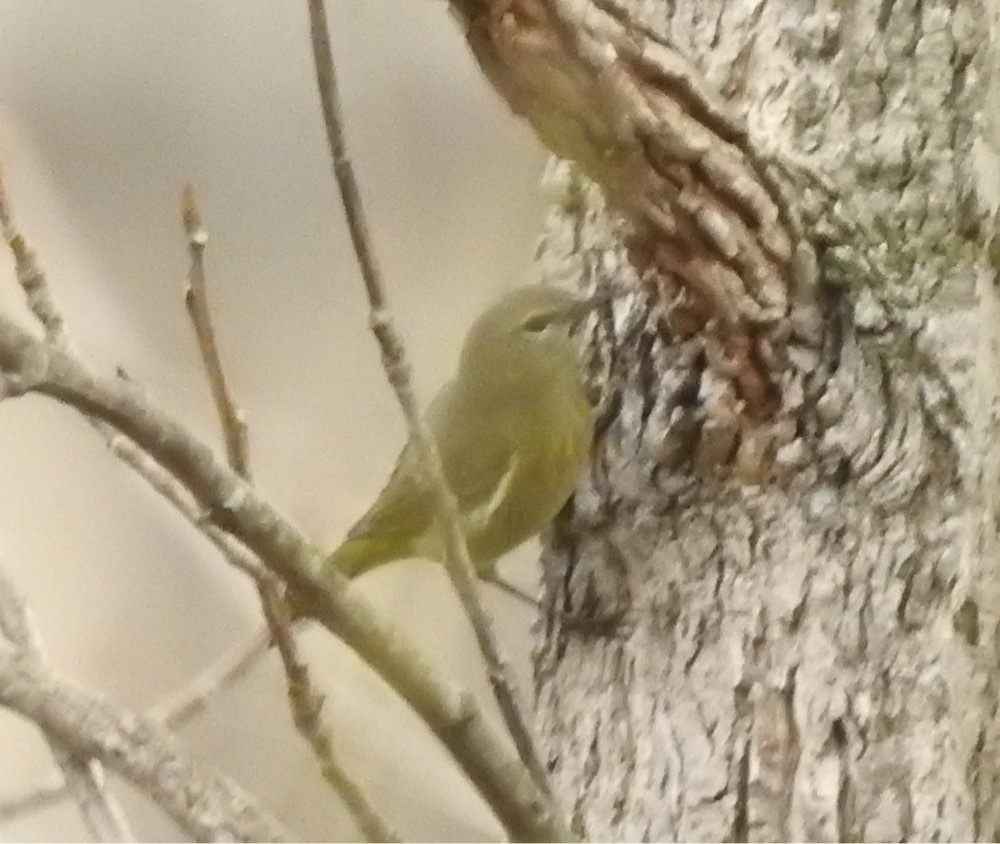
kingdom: Animalia
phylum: Chordata
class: Aves
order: Passeriformes
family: Parulidae
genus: Leiothlypis
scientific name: Leiothlypis celata
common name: Orange-crowned warbler
